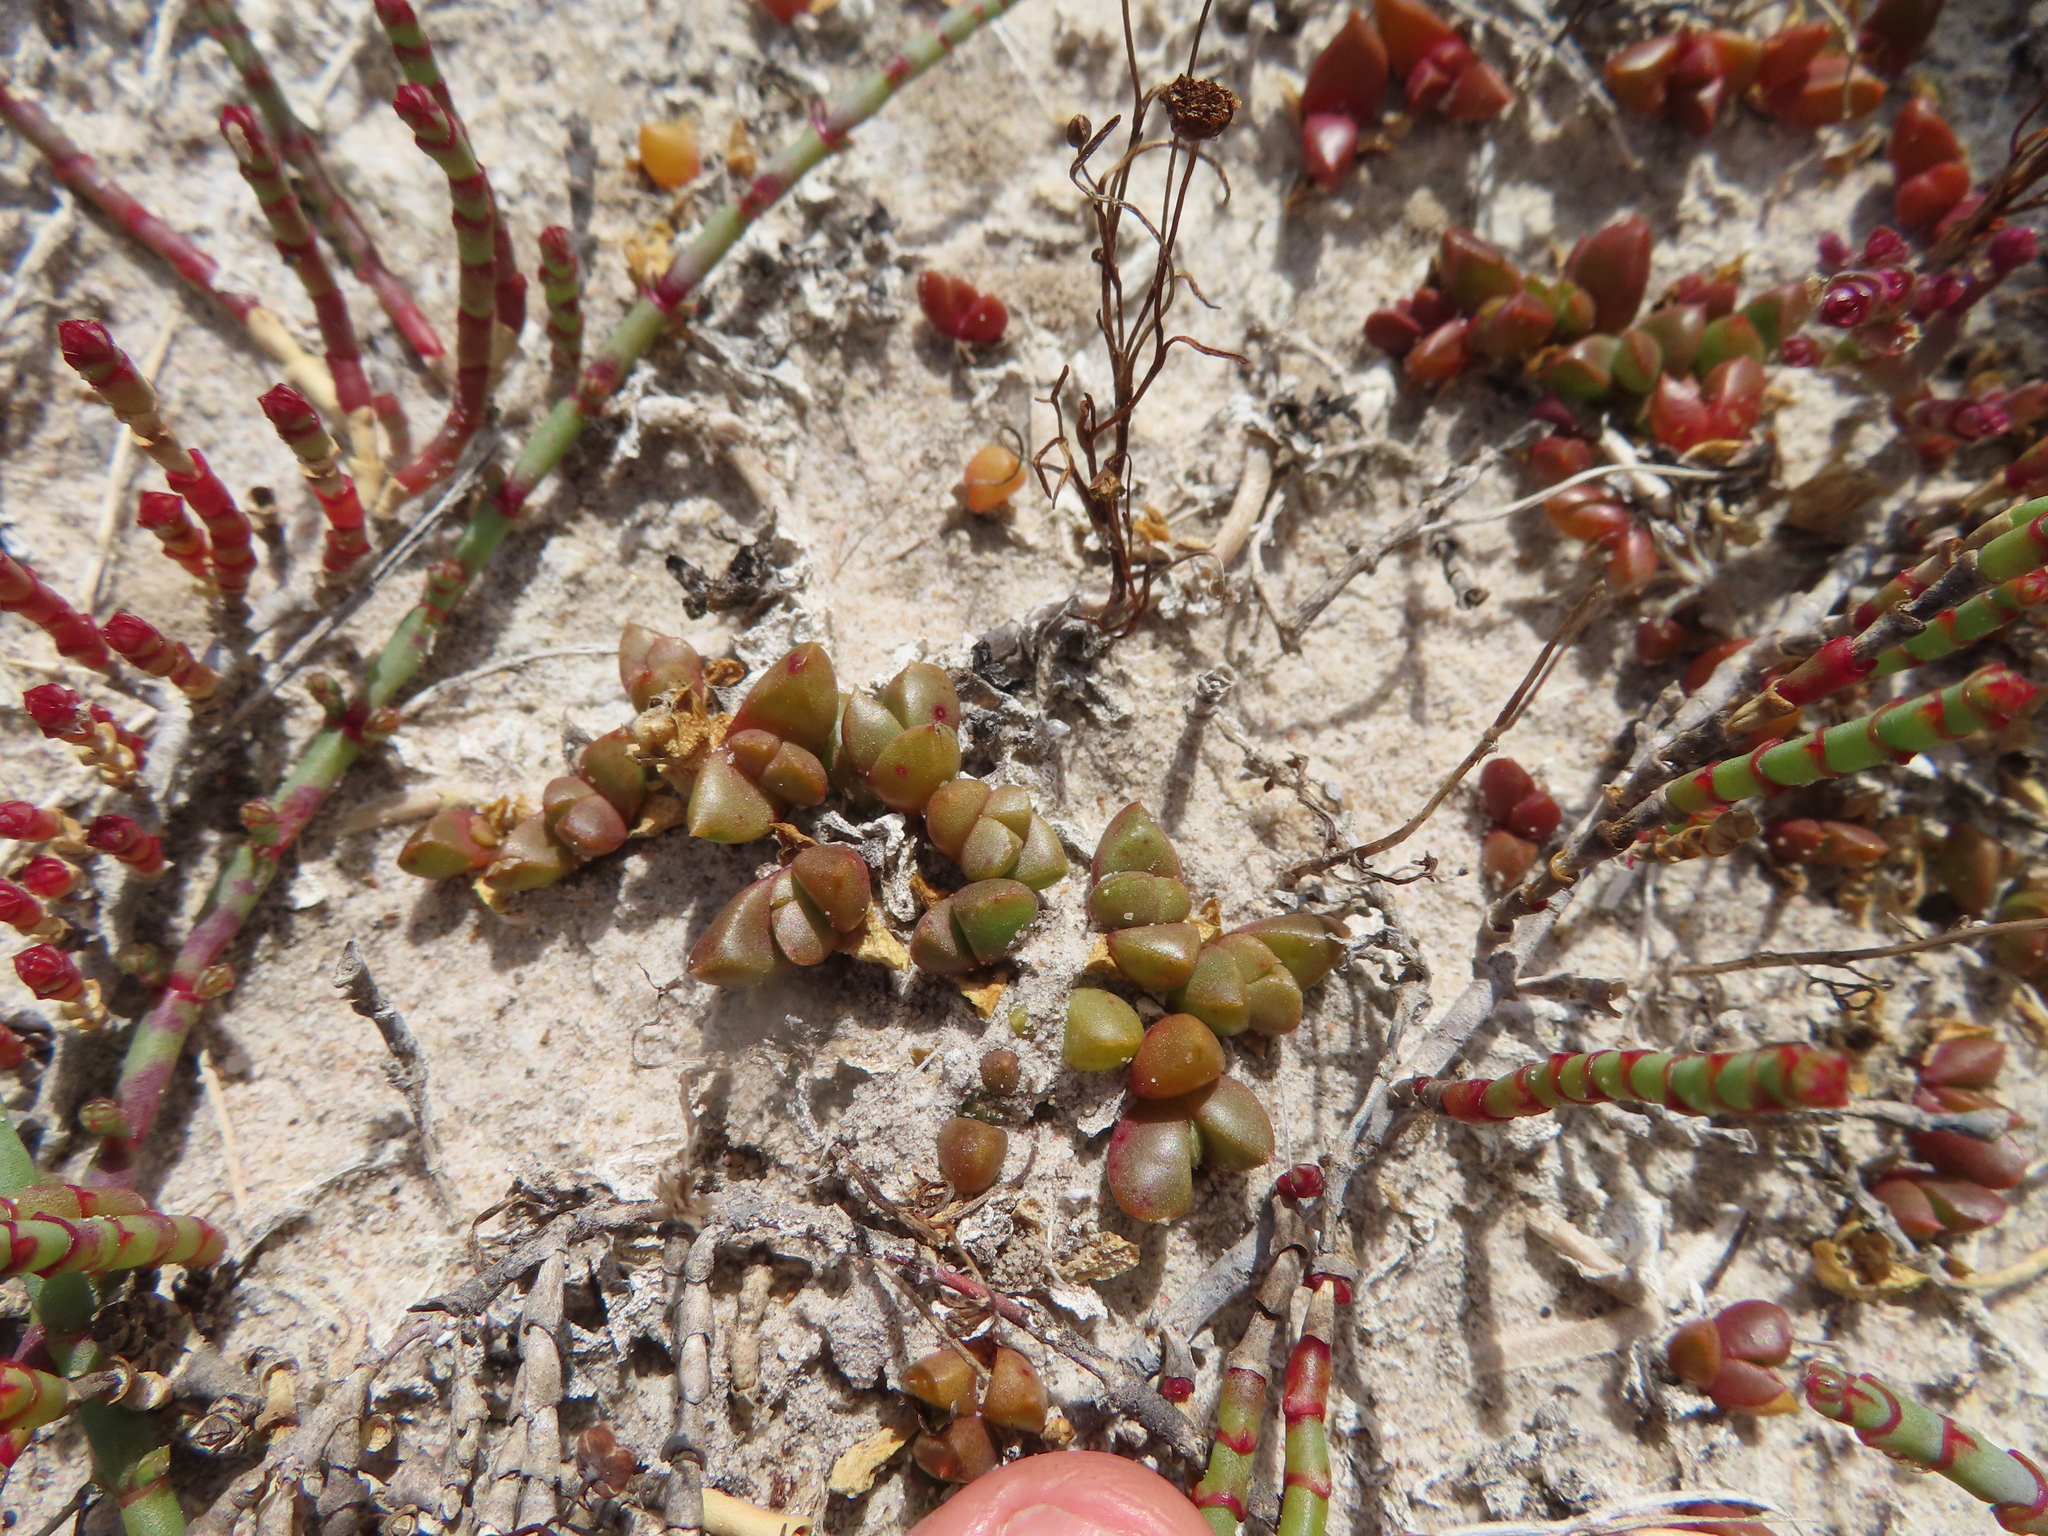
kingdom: Plantae
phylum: Tracheophyta
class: Magnoliopsida
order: Caryophyllales
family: Aizoaceae
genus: Disphyma
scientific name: Disphyma dunsdonii
